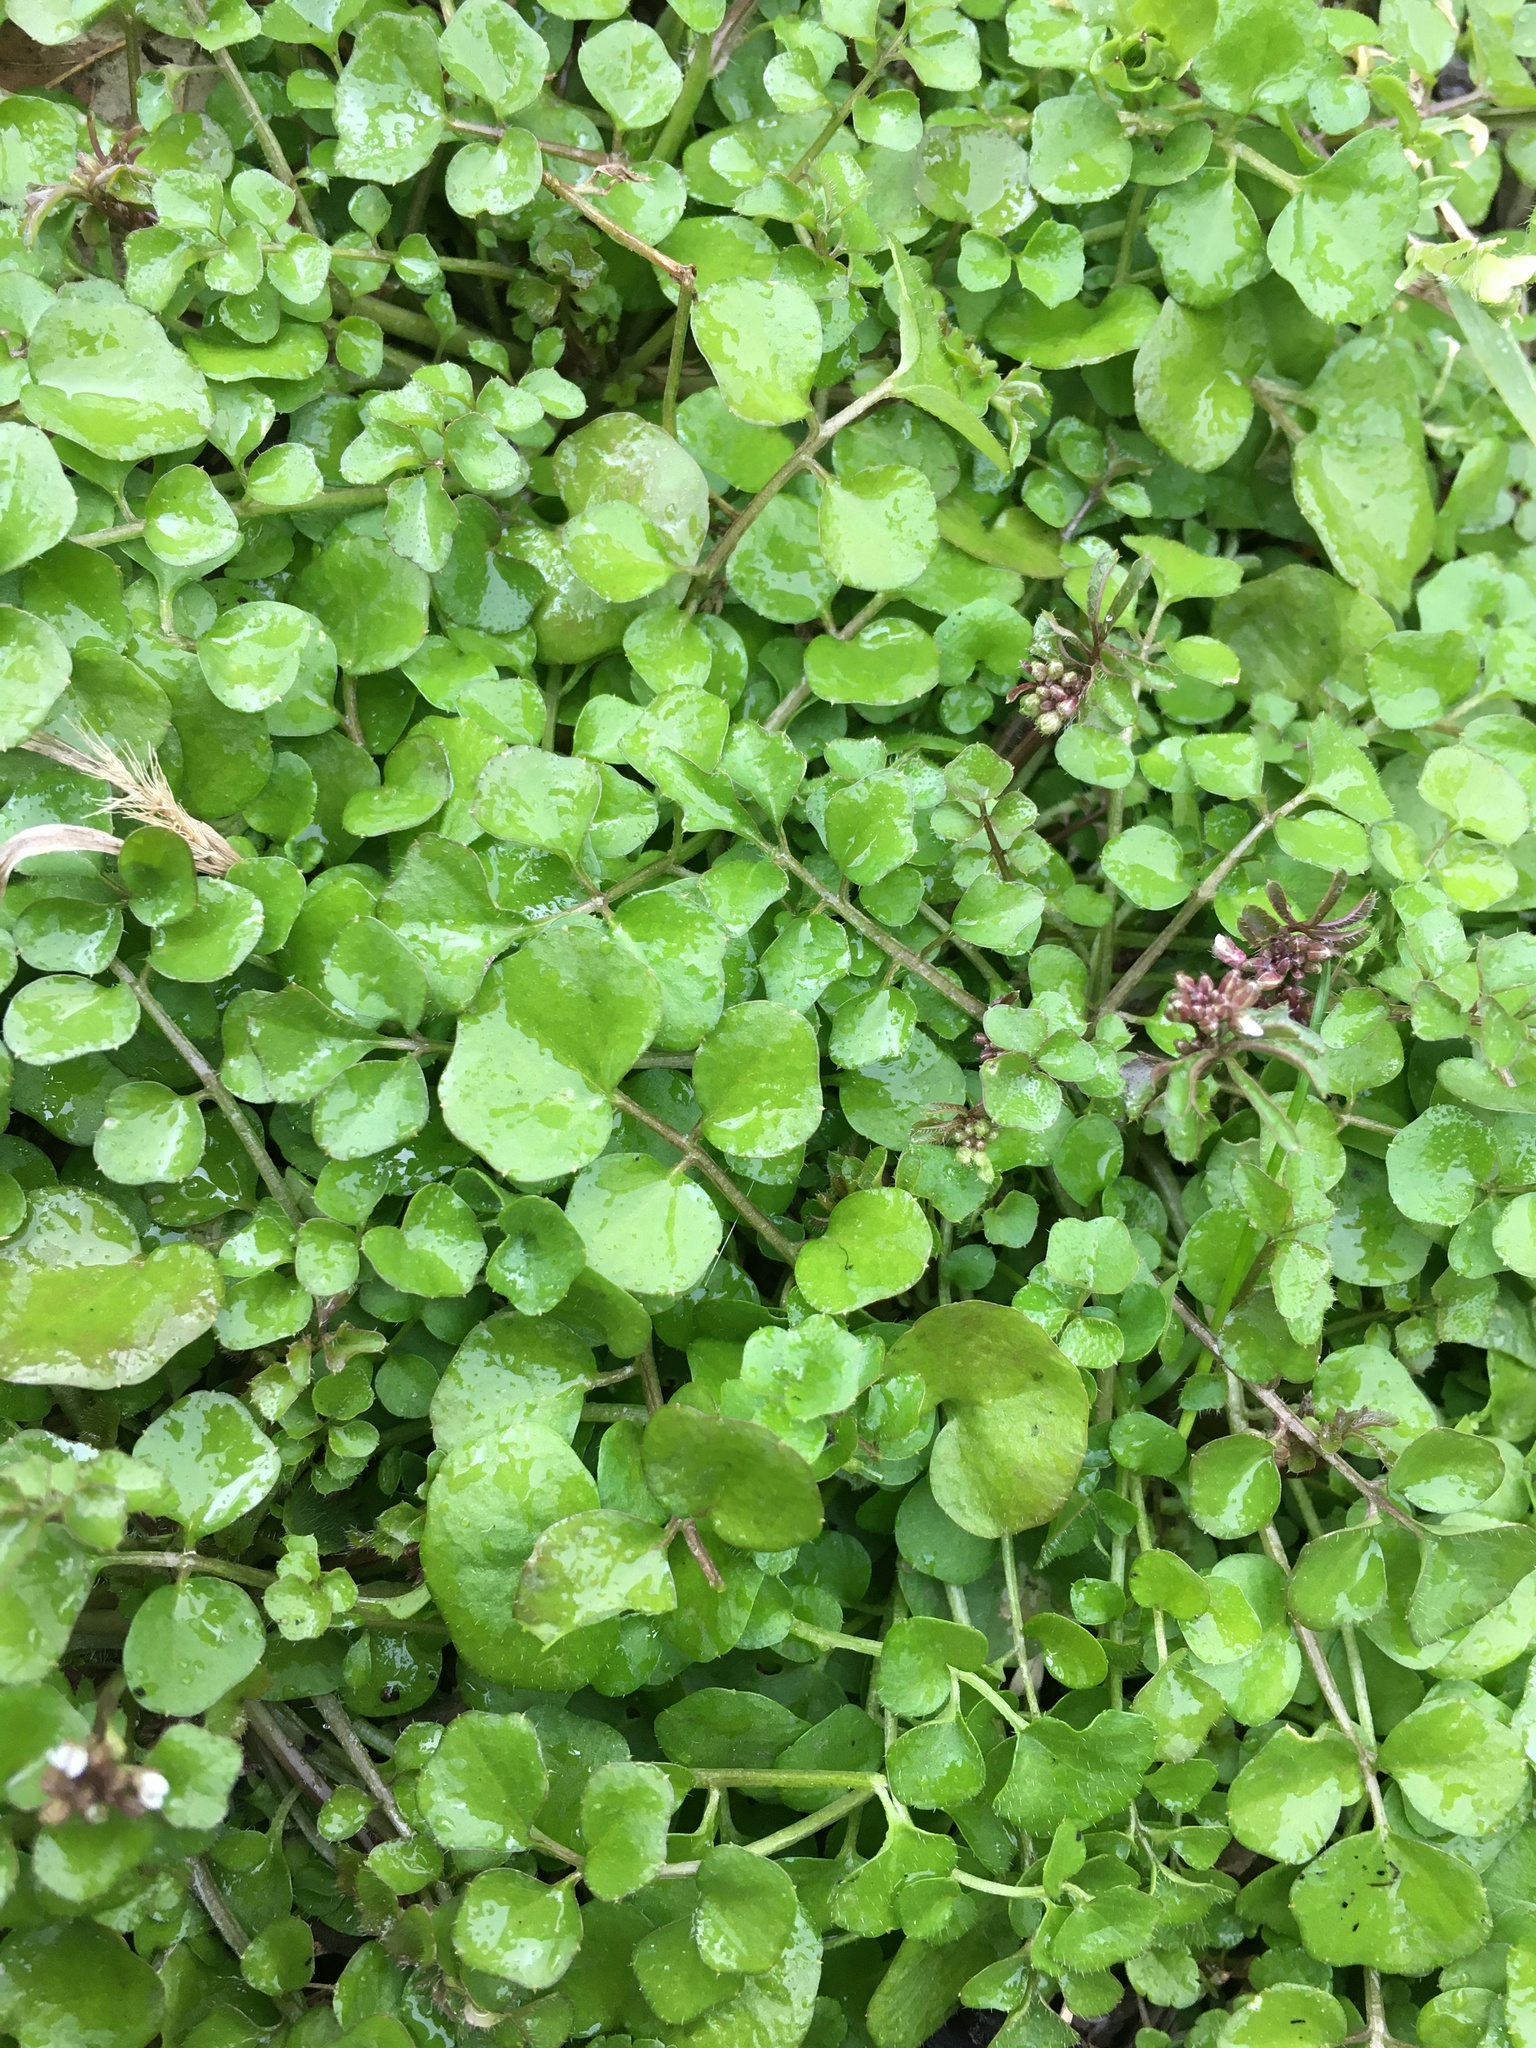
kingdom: Plantae
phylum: Tracheophyta
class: Magnoliopsida
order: Brassicales
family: Brassicaceae
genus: Cardamine
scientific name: Cardamine hirsuta
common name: Hairy bittercress
